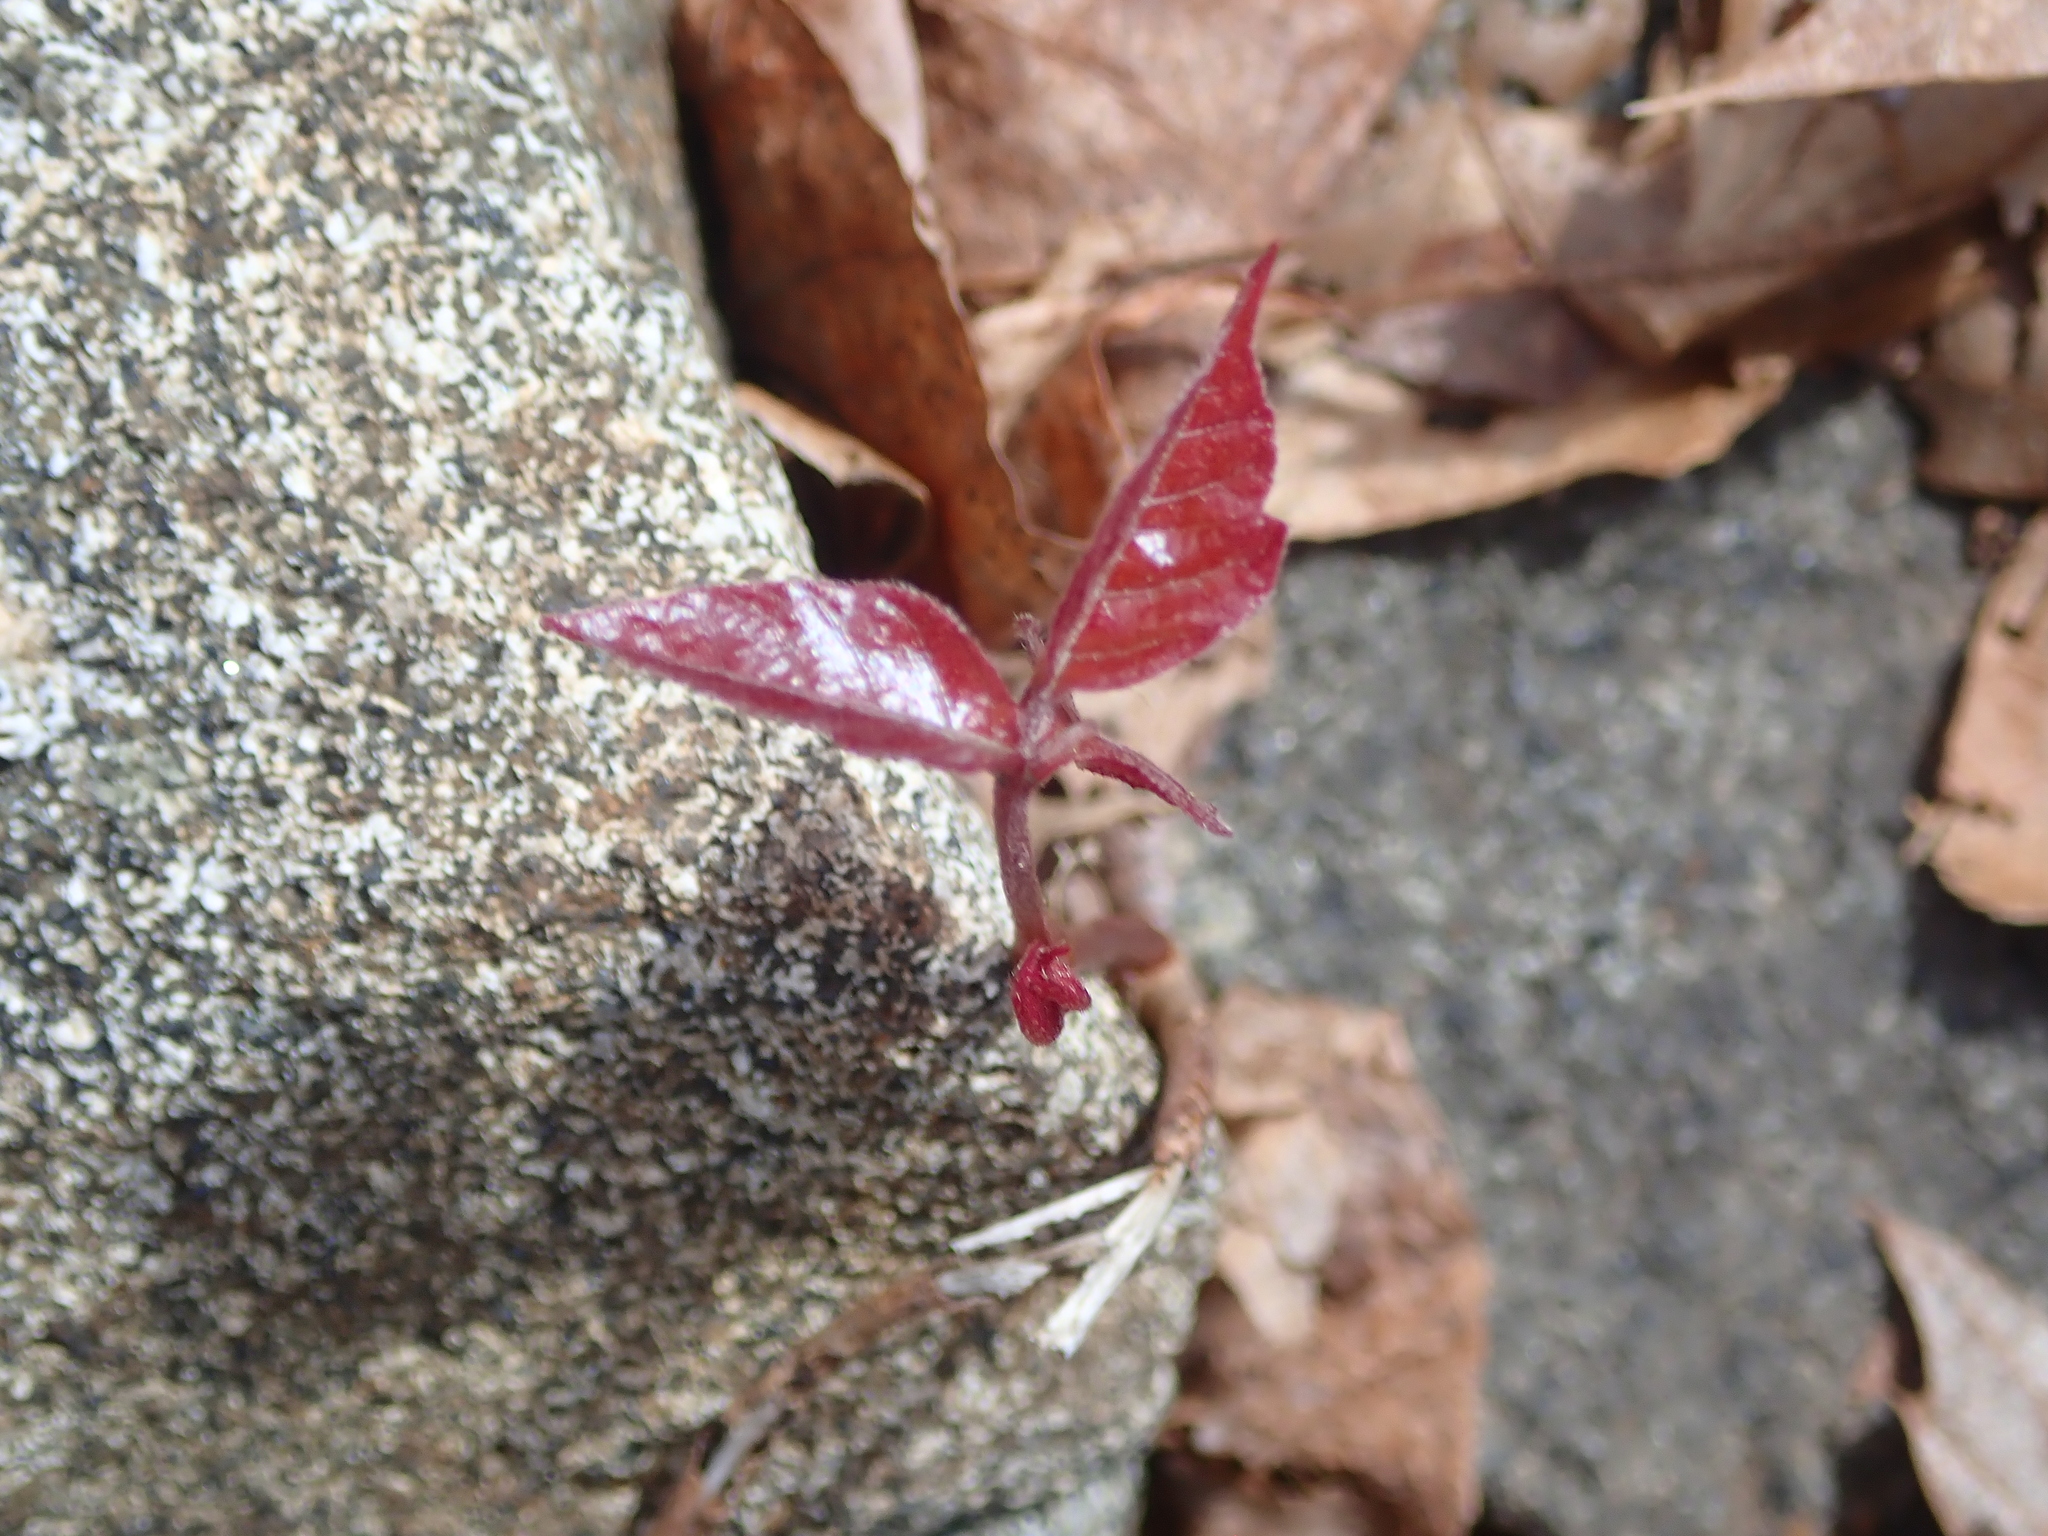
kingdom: Plantae
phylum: Tracheophyta
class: Magnoliopsida
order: Sapindales
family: Anacardiaceae
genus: Toxicodendron
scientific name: Toxicodendron radicans
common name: Poison ivy
